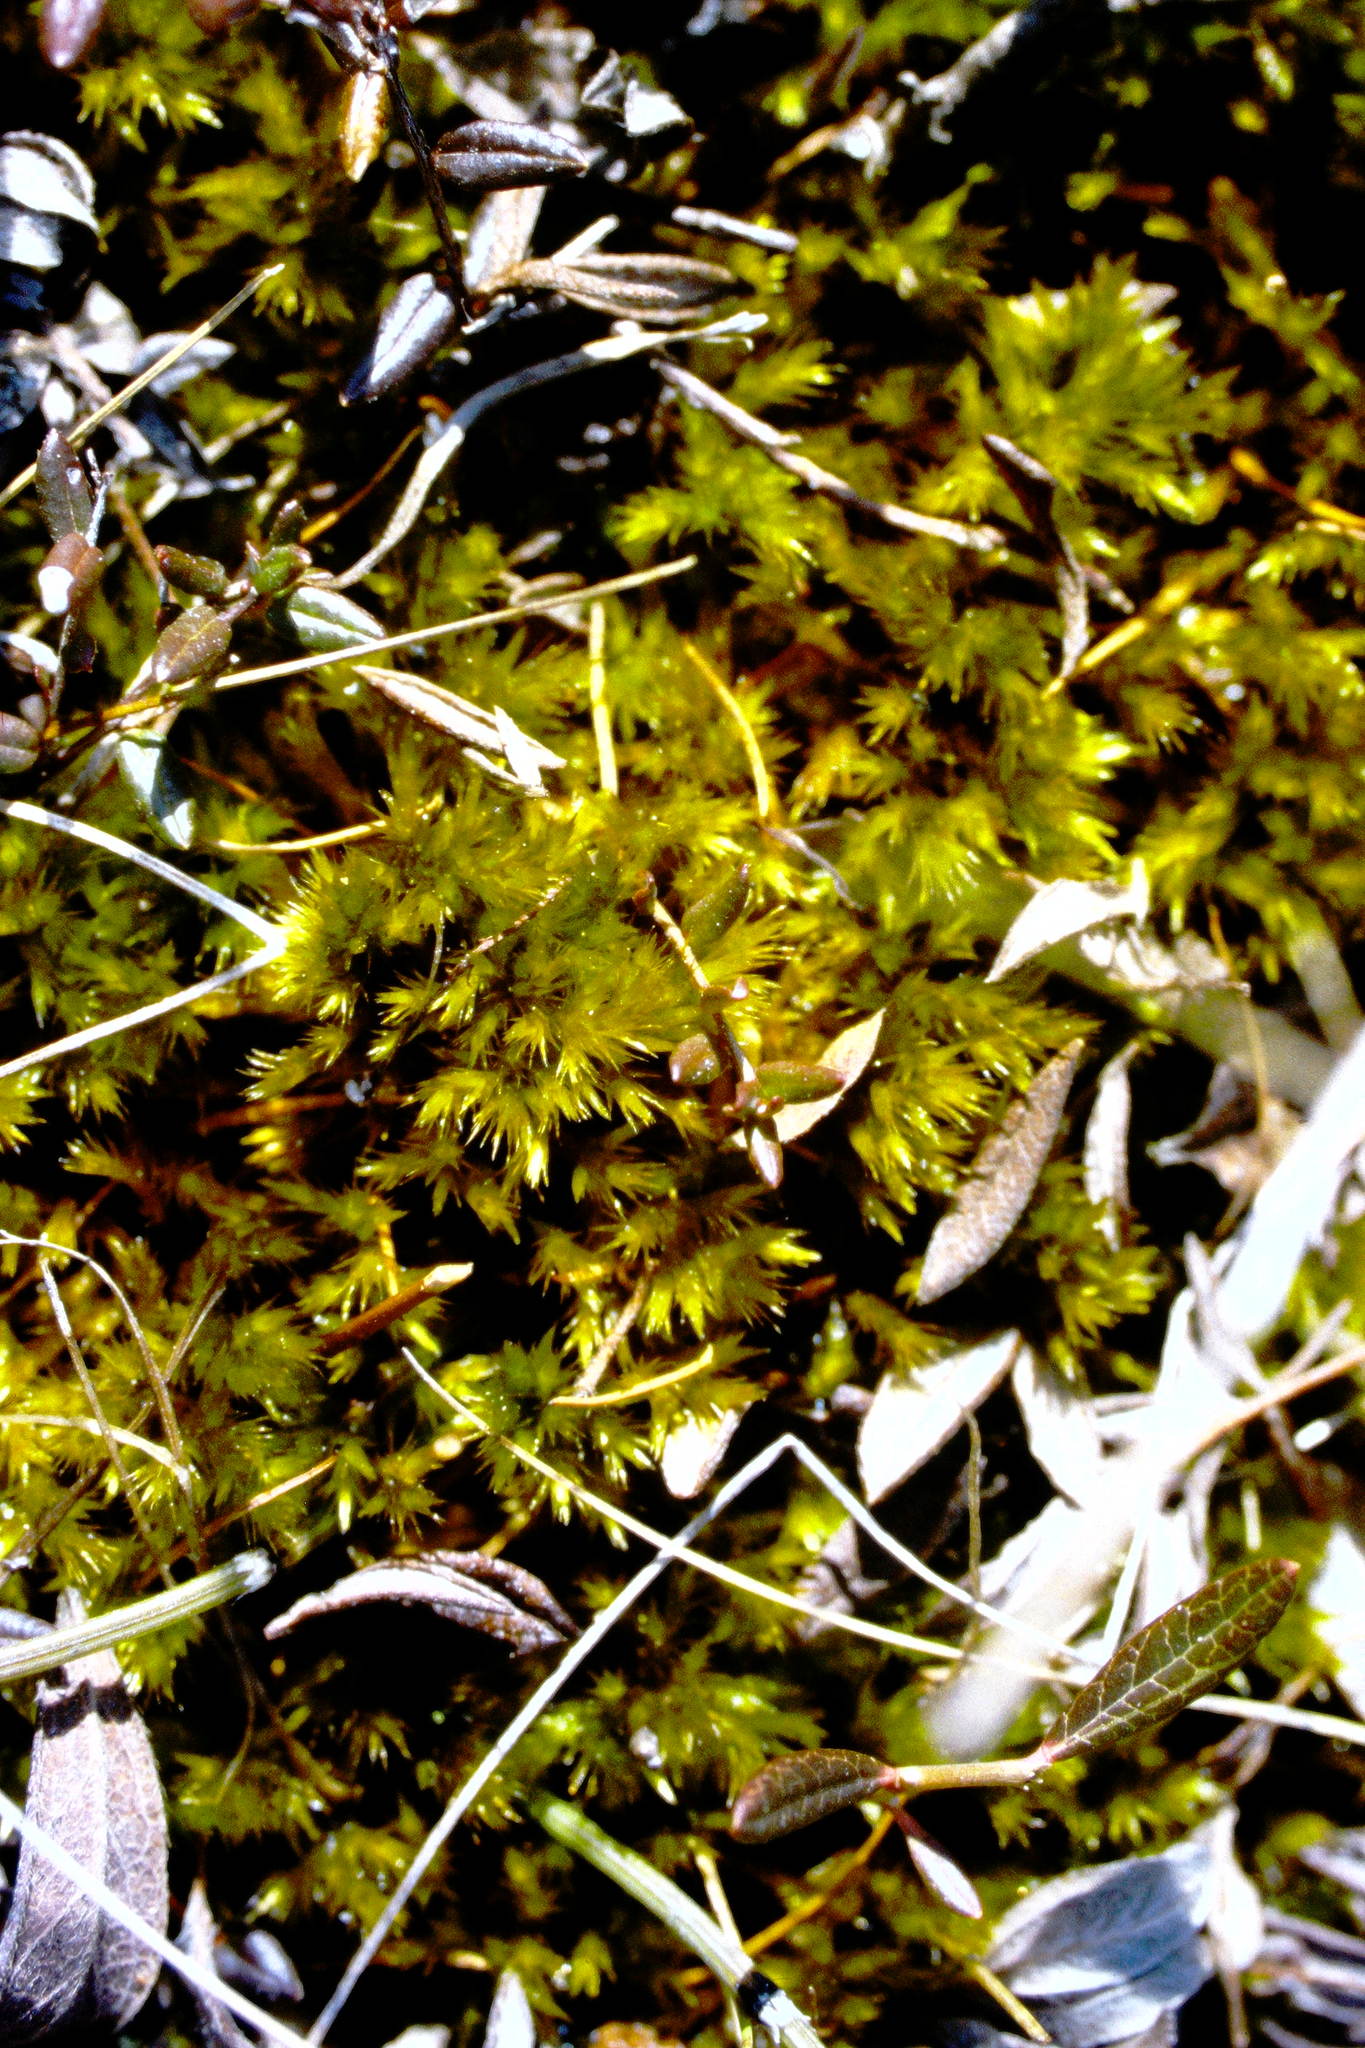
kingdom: Plantae
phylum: Bryophyta
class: Bryopsida
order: Hypnales
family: Amblystegiaceae
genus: Tomentypnum
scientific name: Tomentypnum nitens
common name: Golden fuzzy fen moss
